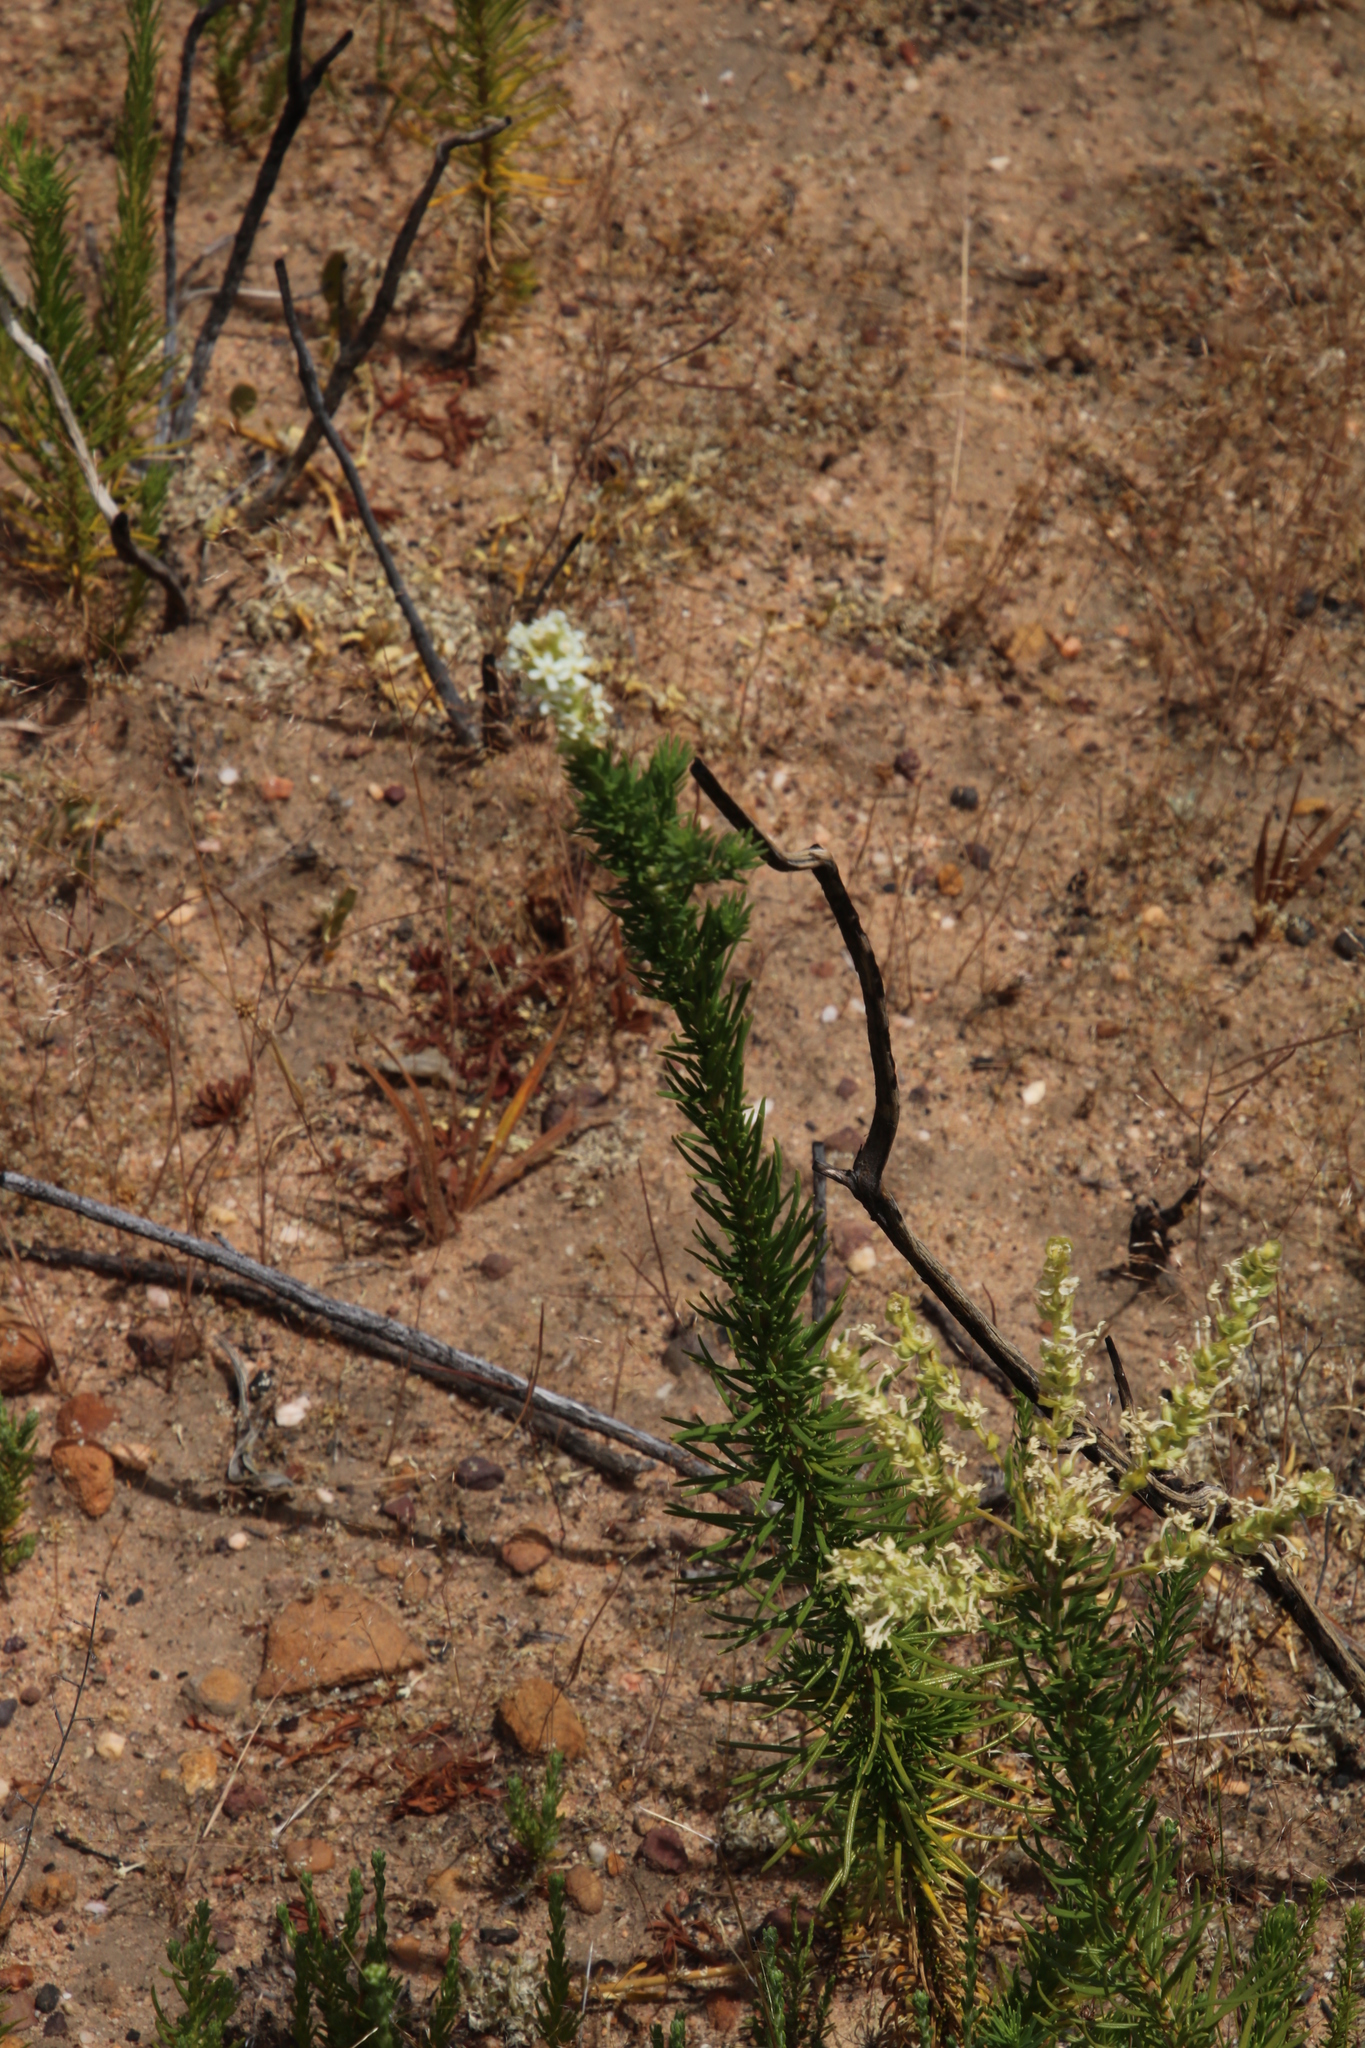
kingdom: Plantae
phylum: Tracheophyta
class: Magnoliopsida
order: Lamiales
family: Scrophulariaceae
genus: Microdon
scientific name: Microdon polygaloides
